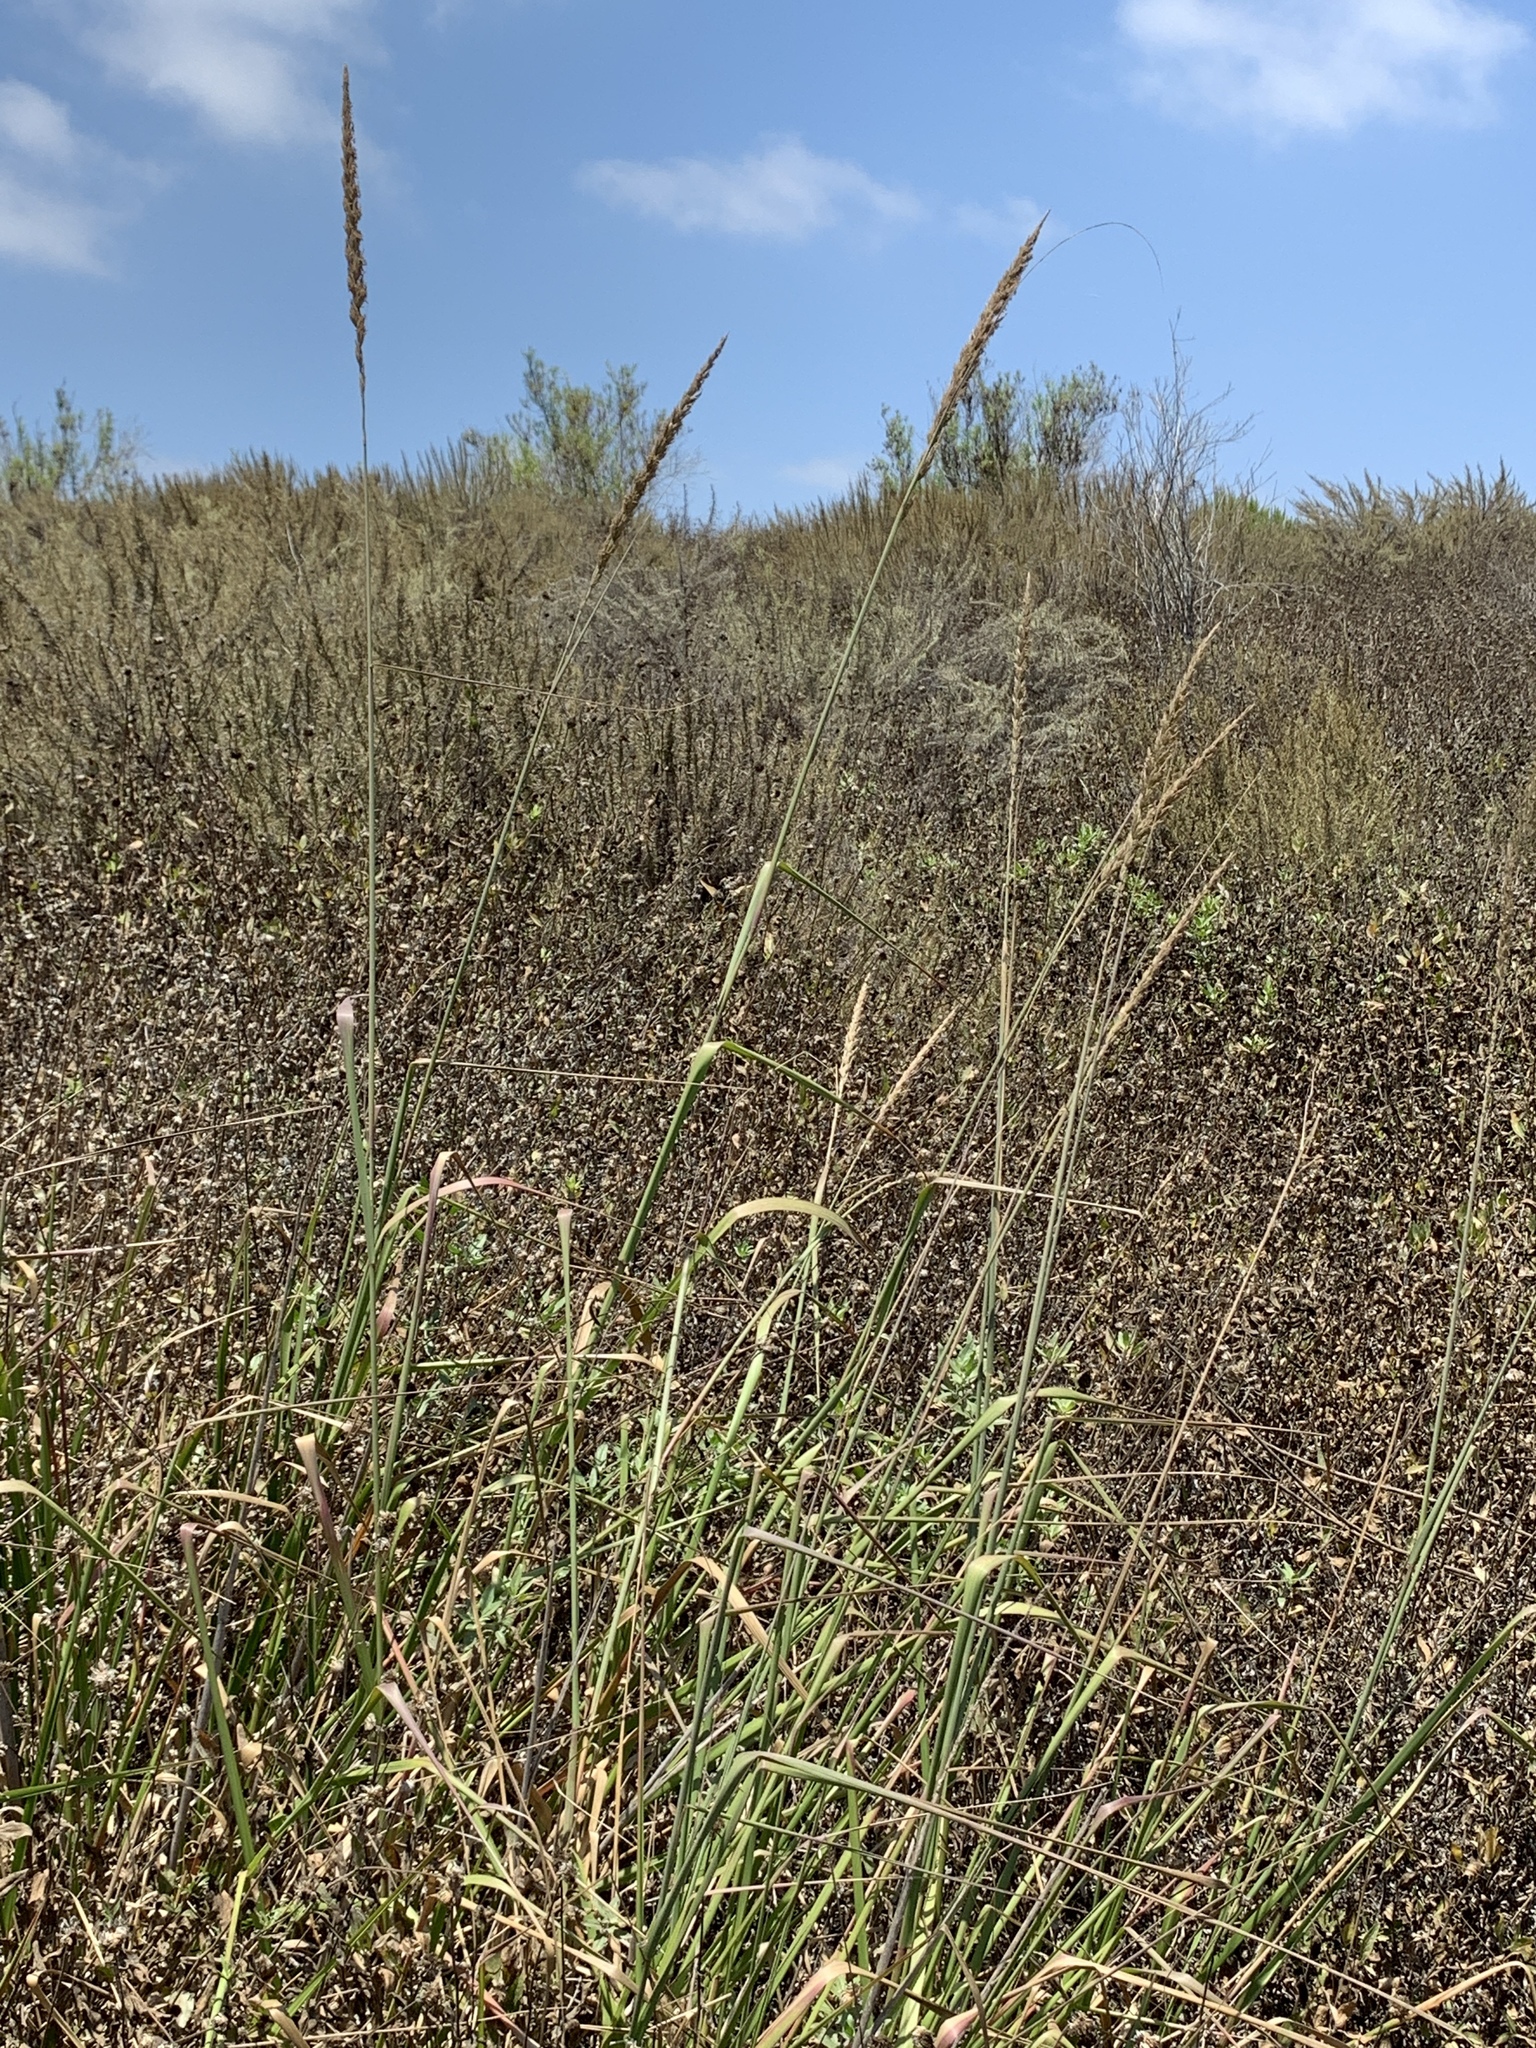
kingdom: Plantae
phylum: Tracheophyta
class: Liliopsida
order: Poales
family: Poaceae
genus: Leymus
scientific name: Leymus condensatus
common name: Giant wild rye
